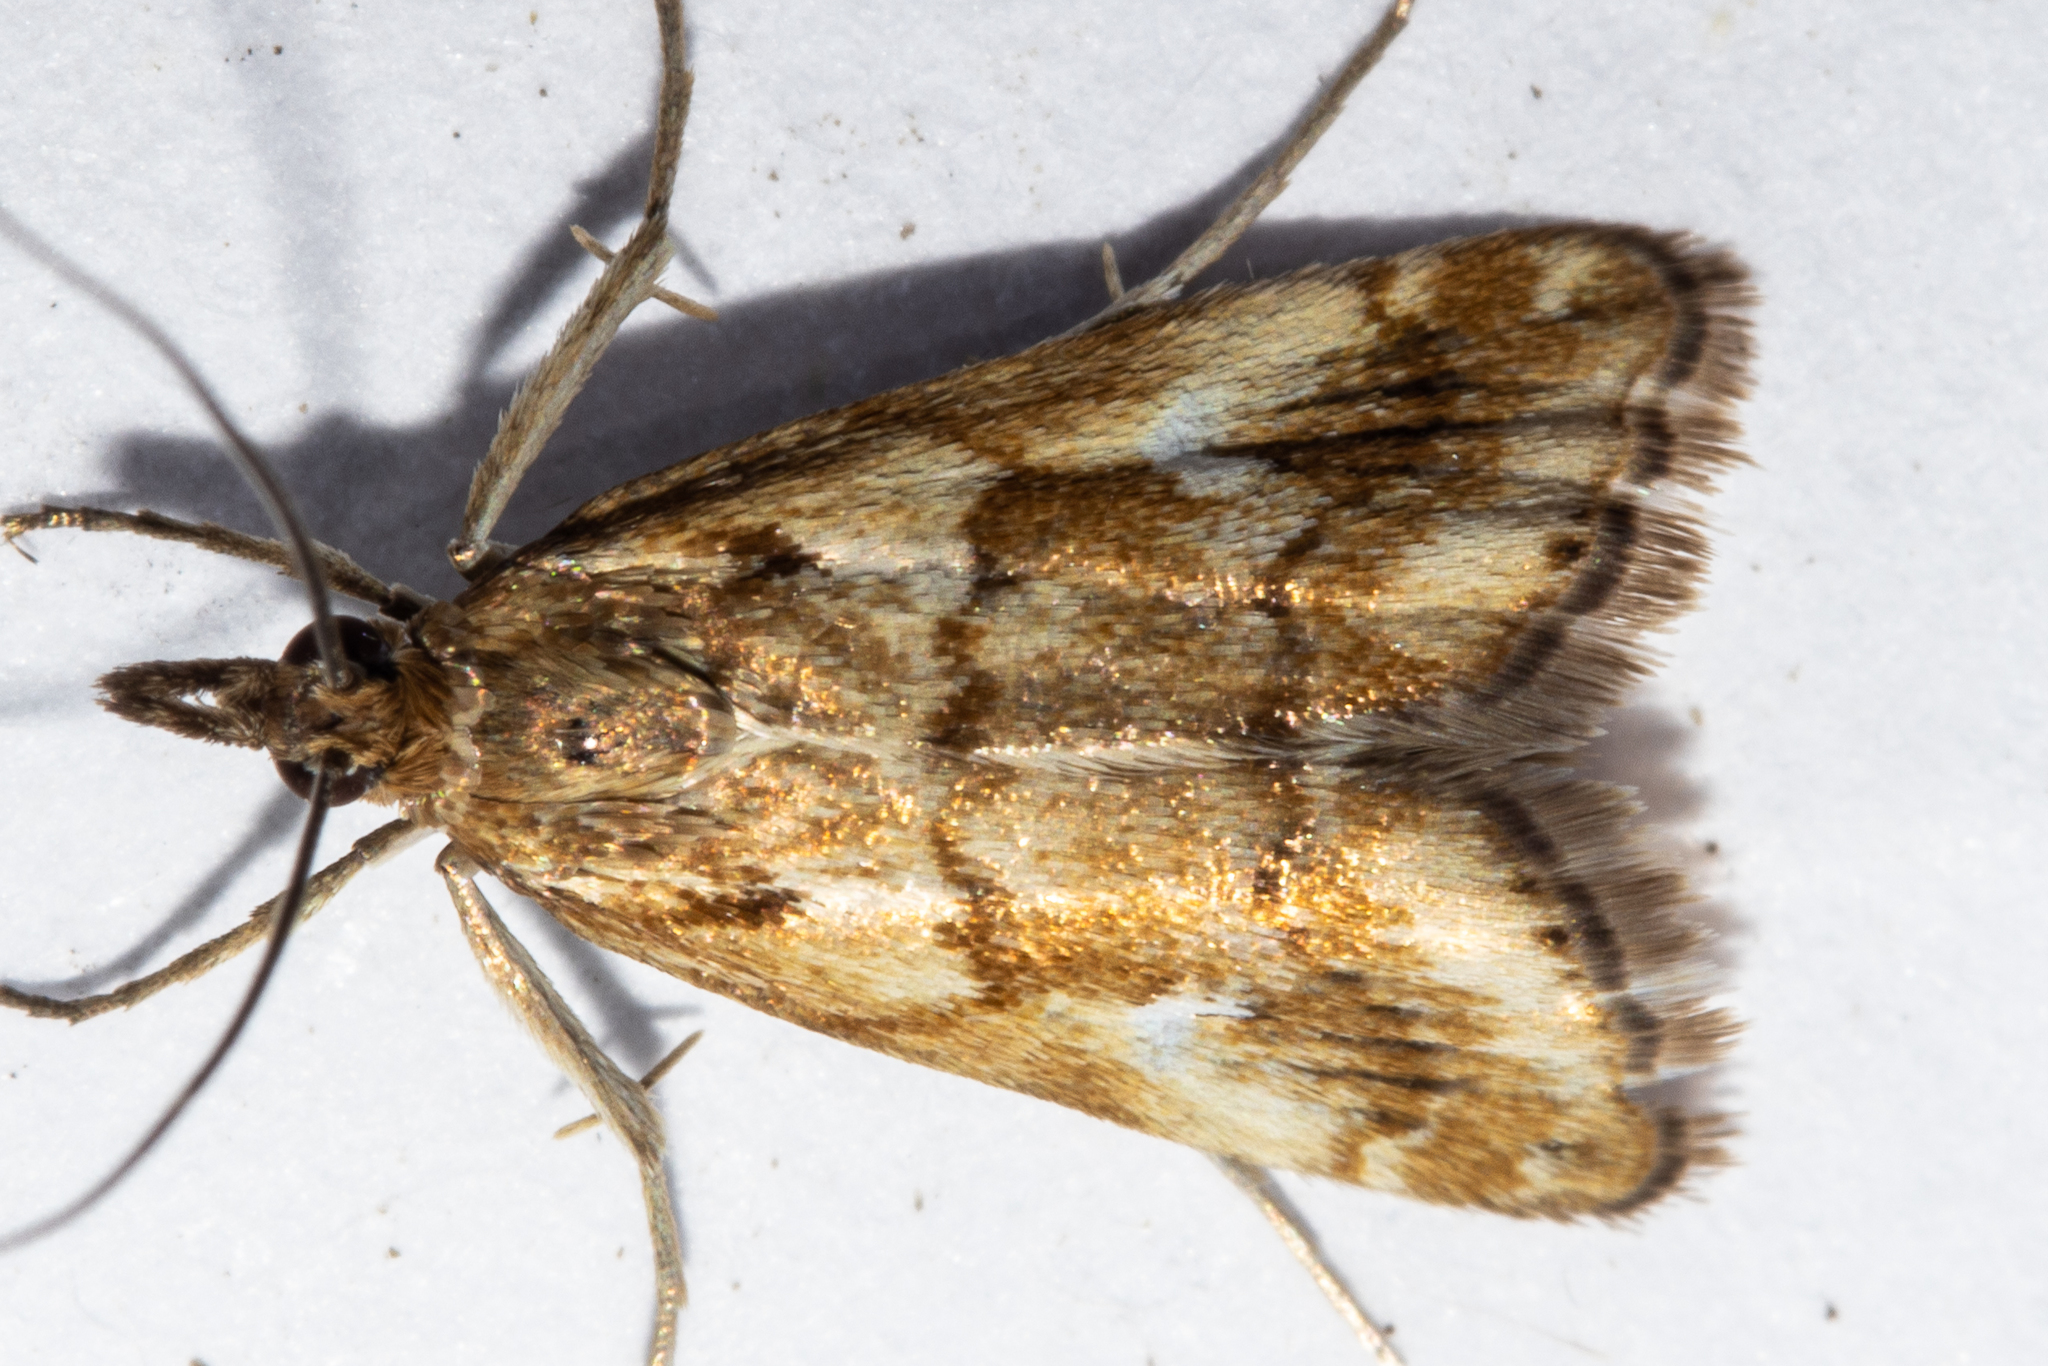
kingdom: Animalia
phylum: Arthropoda
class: Insecta
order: Lepidoptera
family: Crambidae
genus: Glaucocharis
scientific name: Glaucocharis helioctypa
